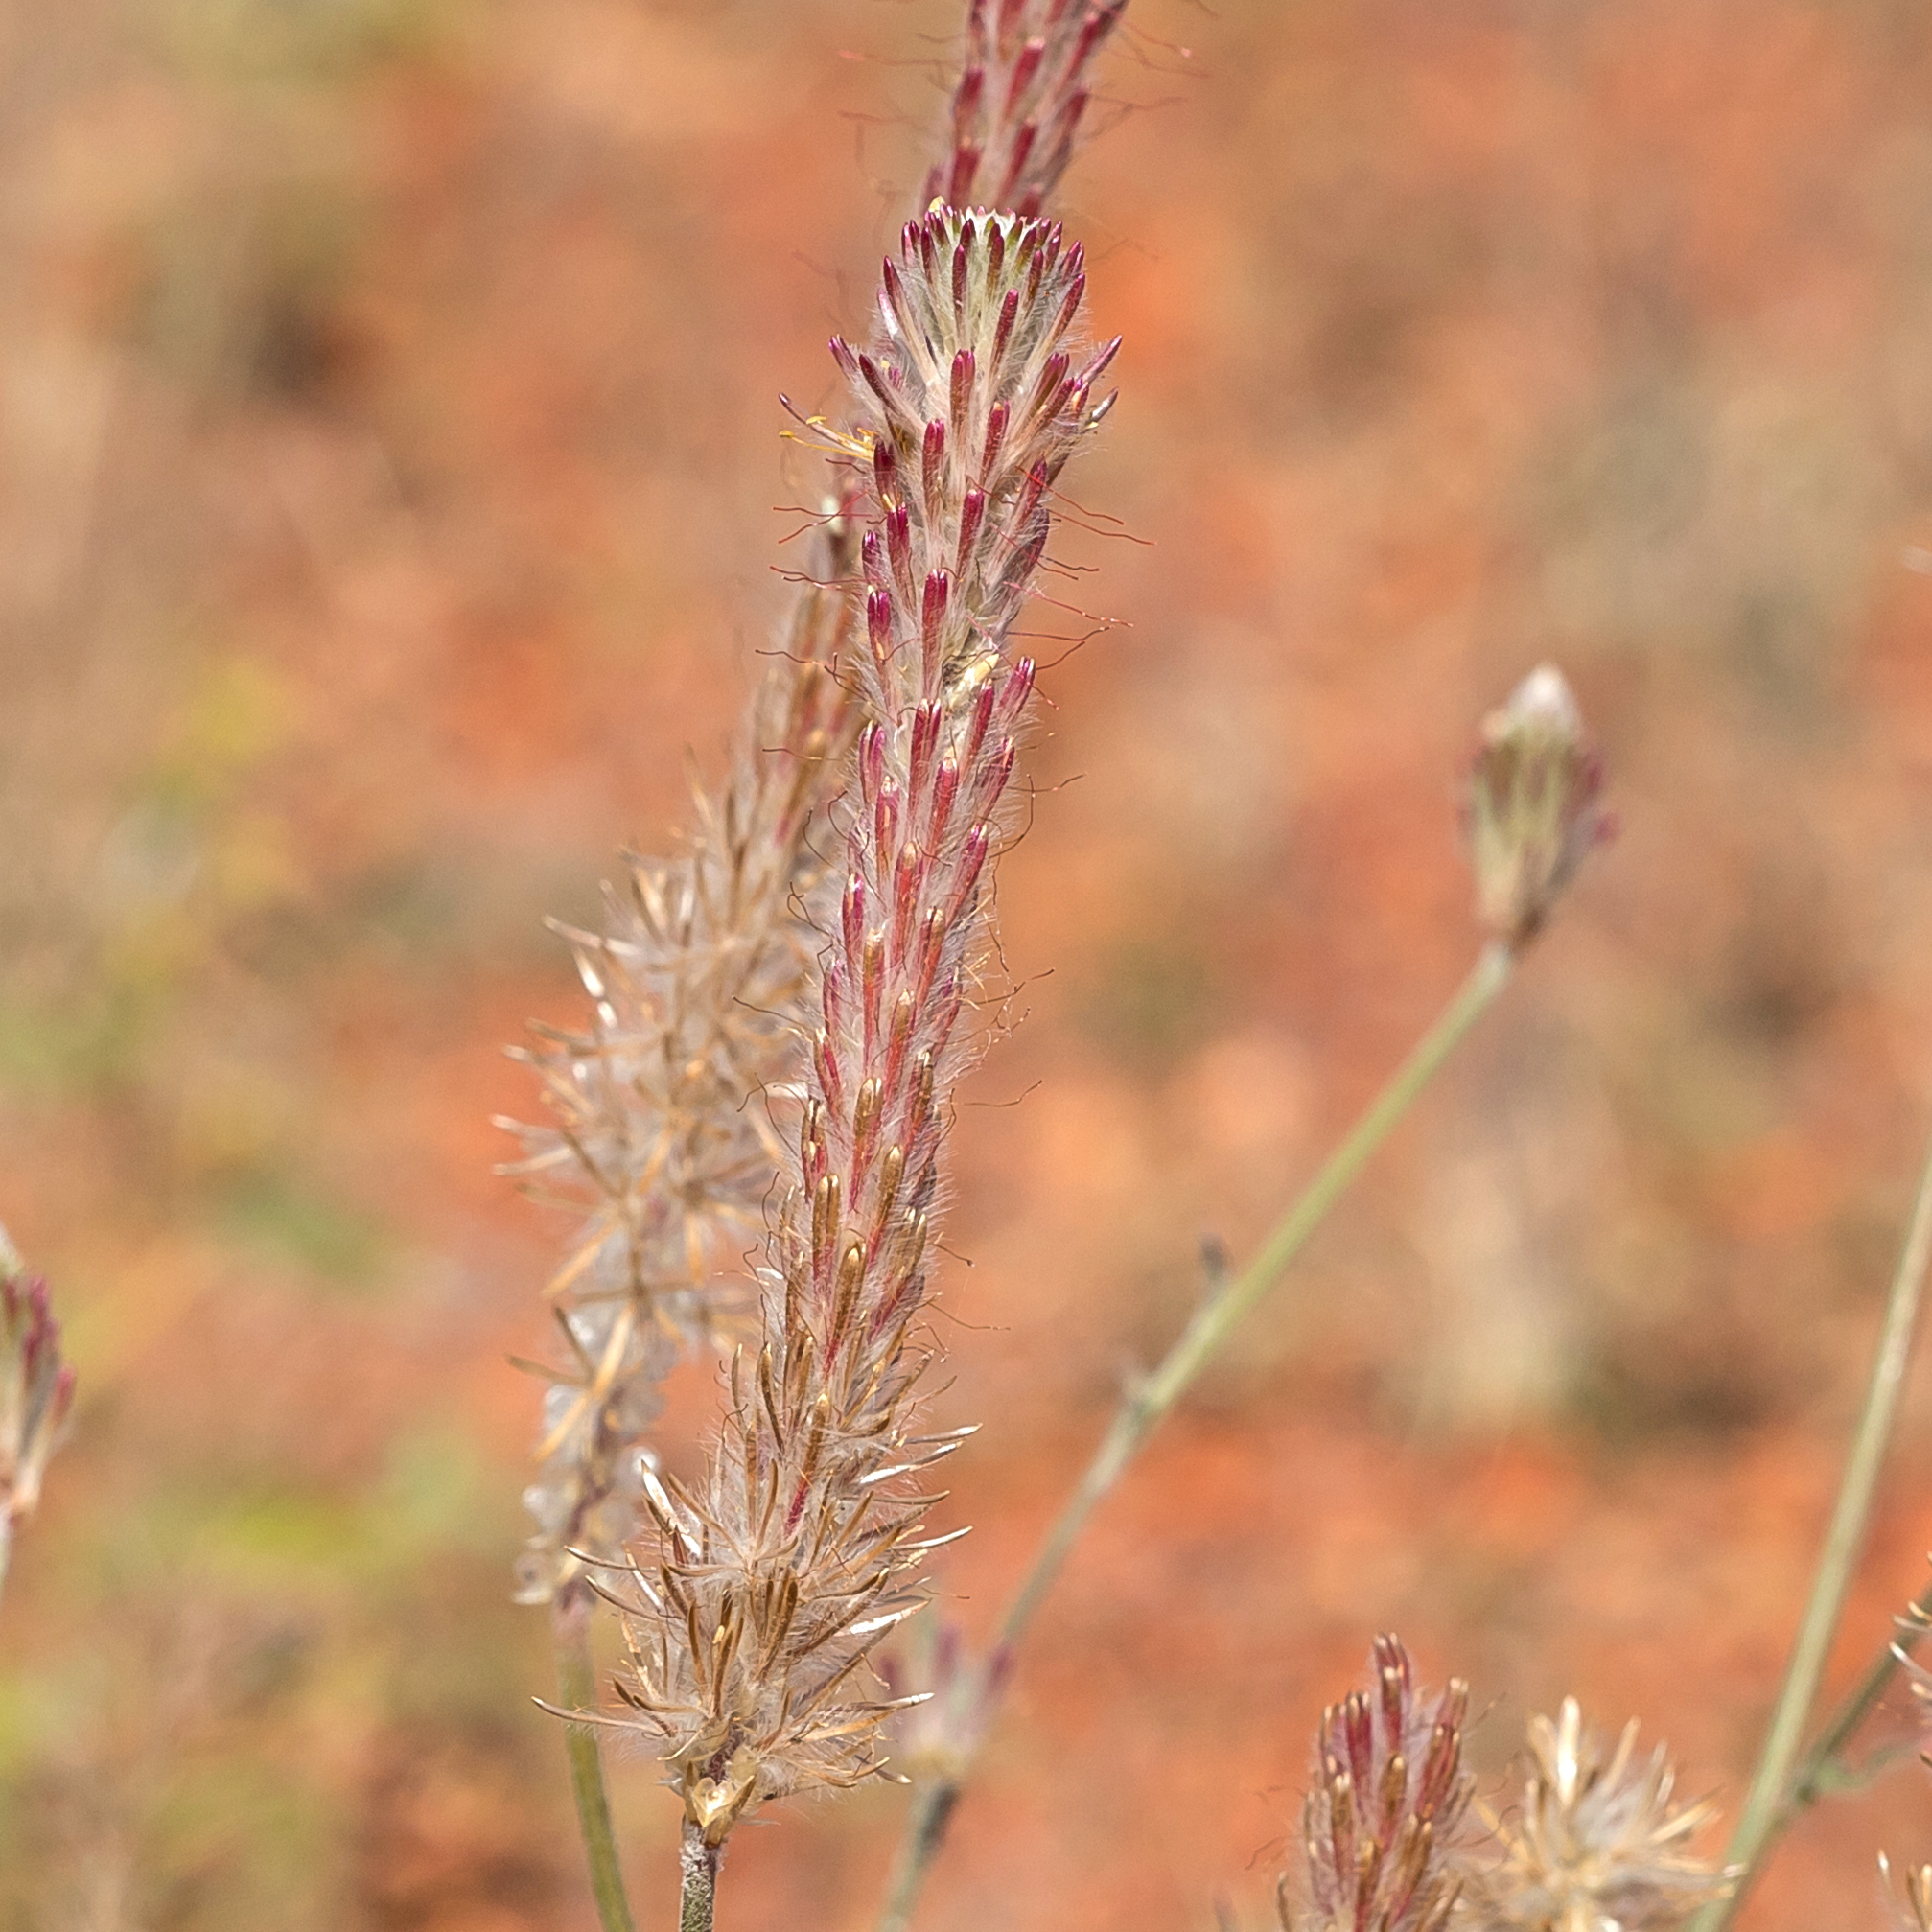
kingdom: Plantae
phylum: Tracheophyta
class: Magnoliopsida
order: Caryophyllales
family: Amaranthaceae
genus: Ptilotus
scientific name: Ptilotus polystachyus
